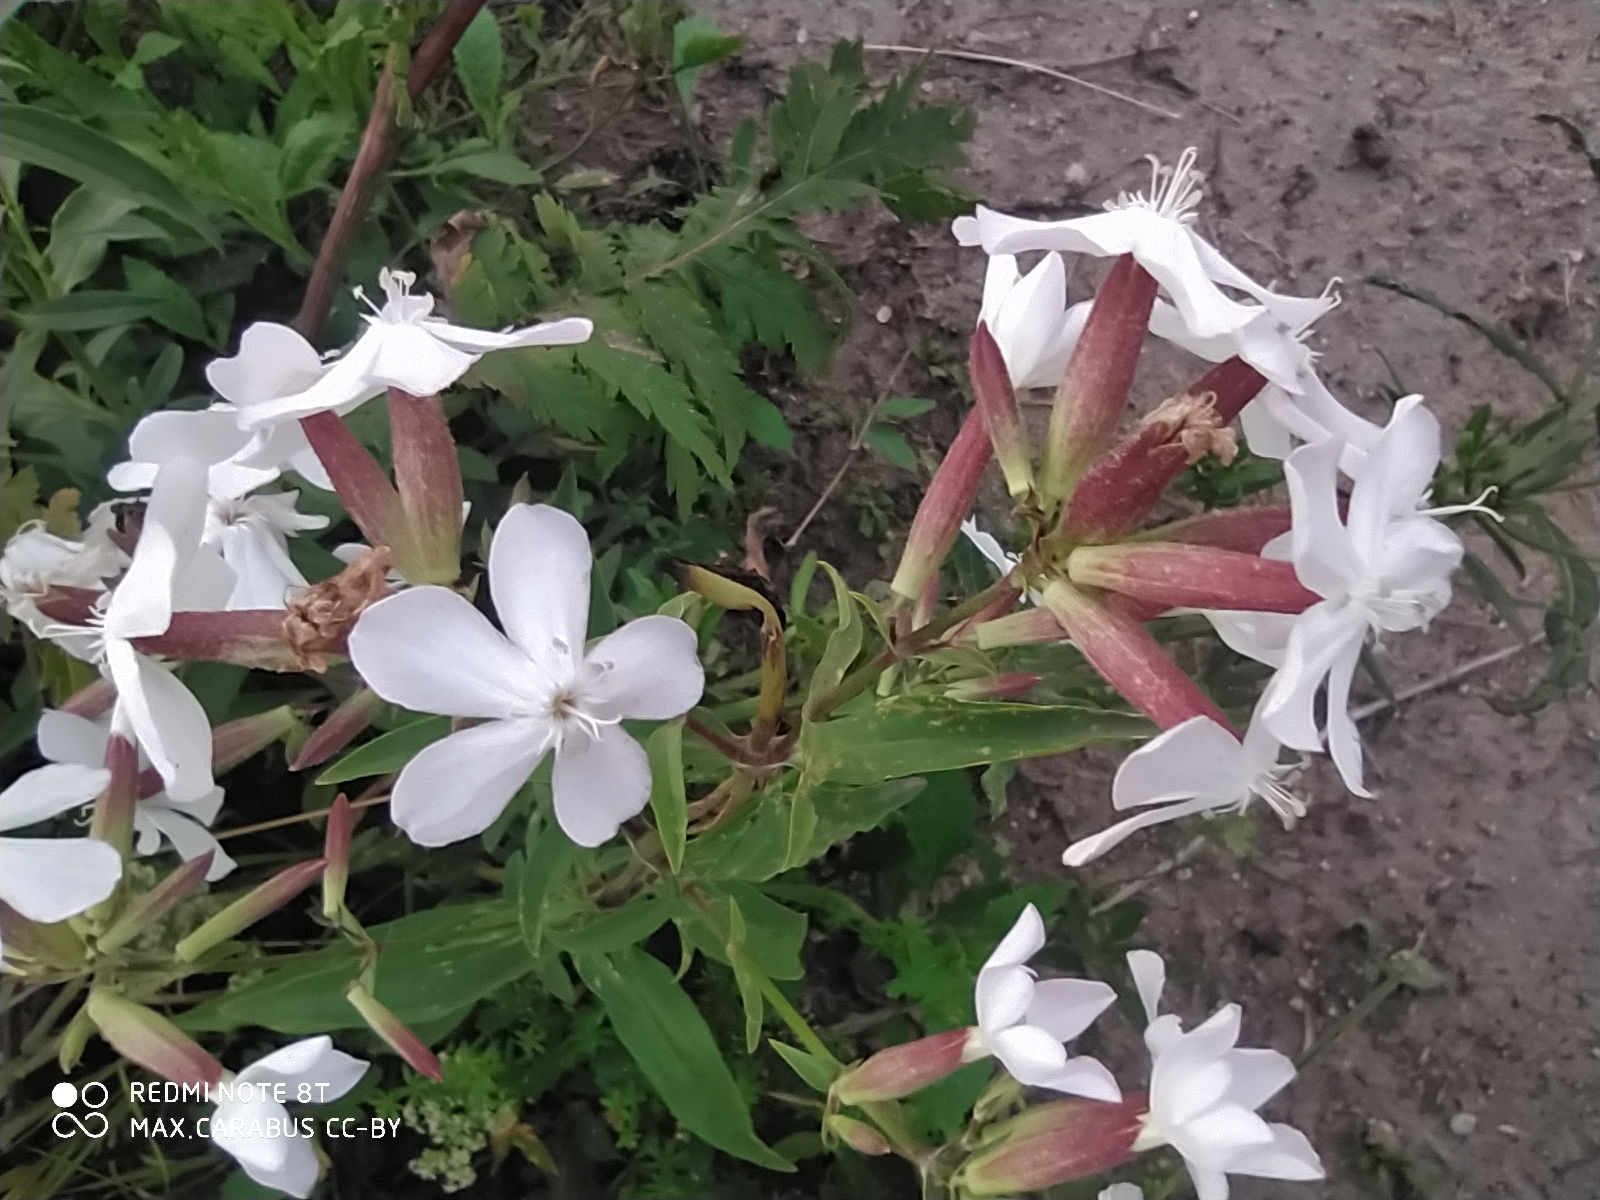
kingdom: Plantae
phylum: Tracheophyta
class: Magnoliopsida
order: Caryophyllales
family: Caryophyllaceae
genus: Saponaria
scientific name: Saponaria officinalis
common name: Soapwort
